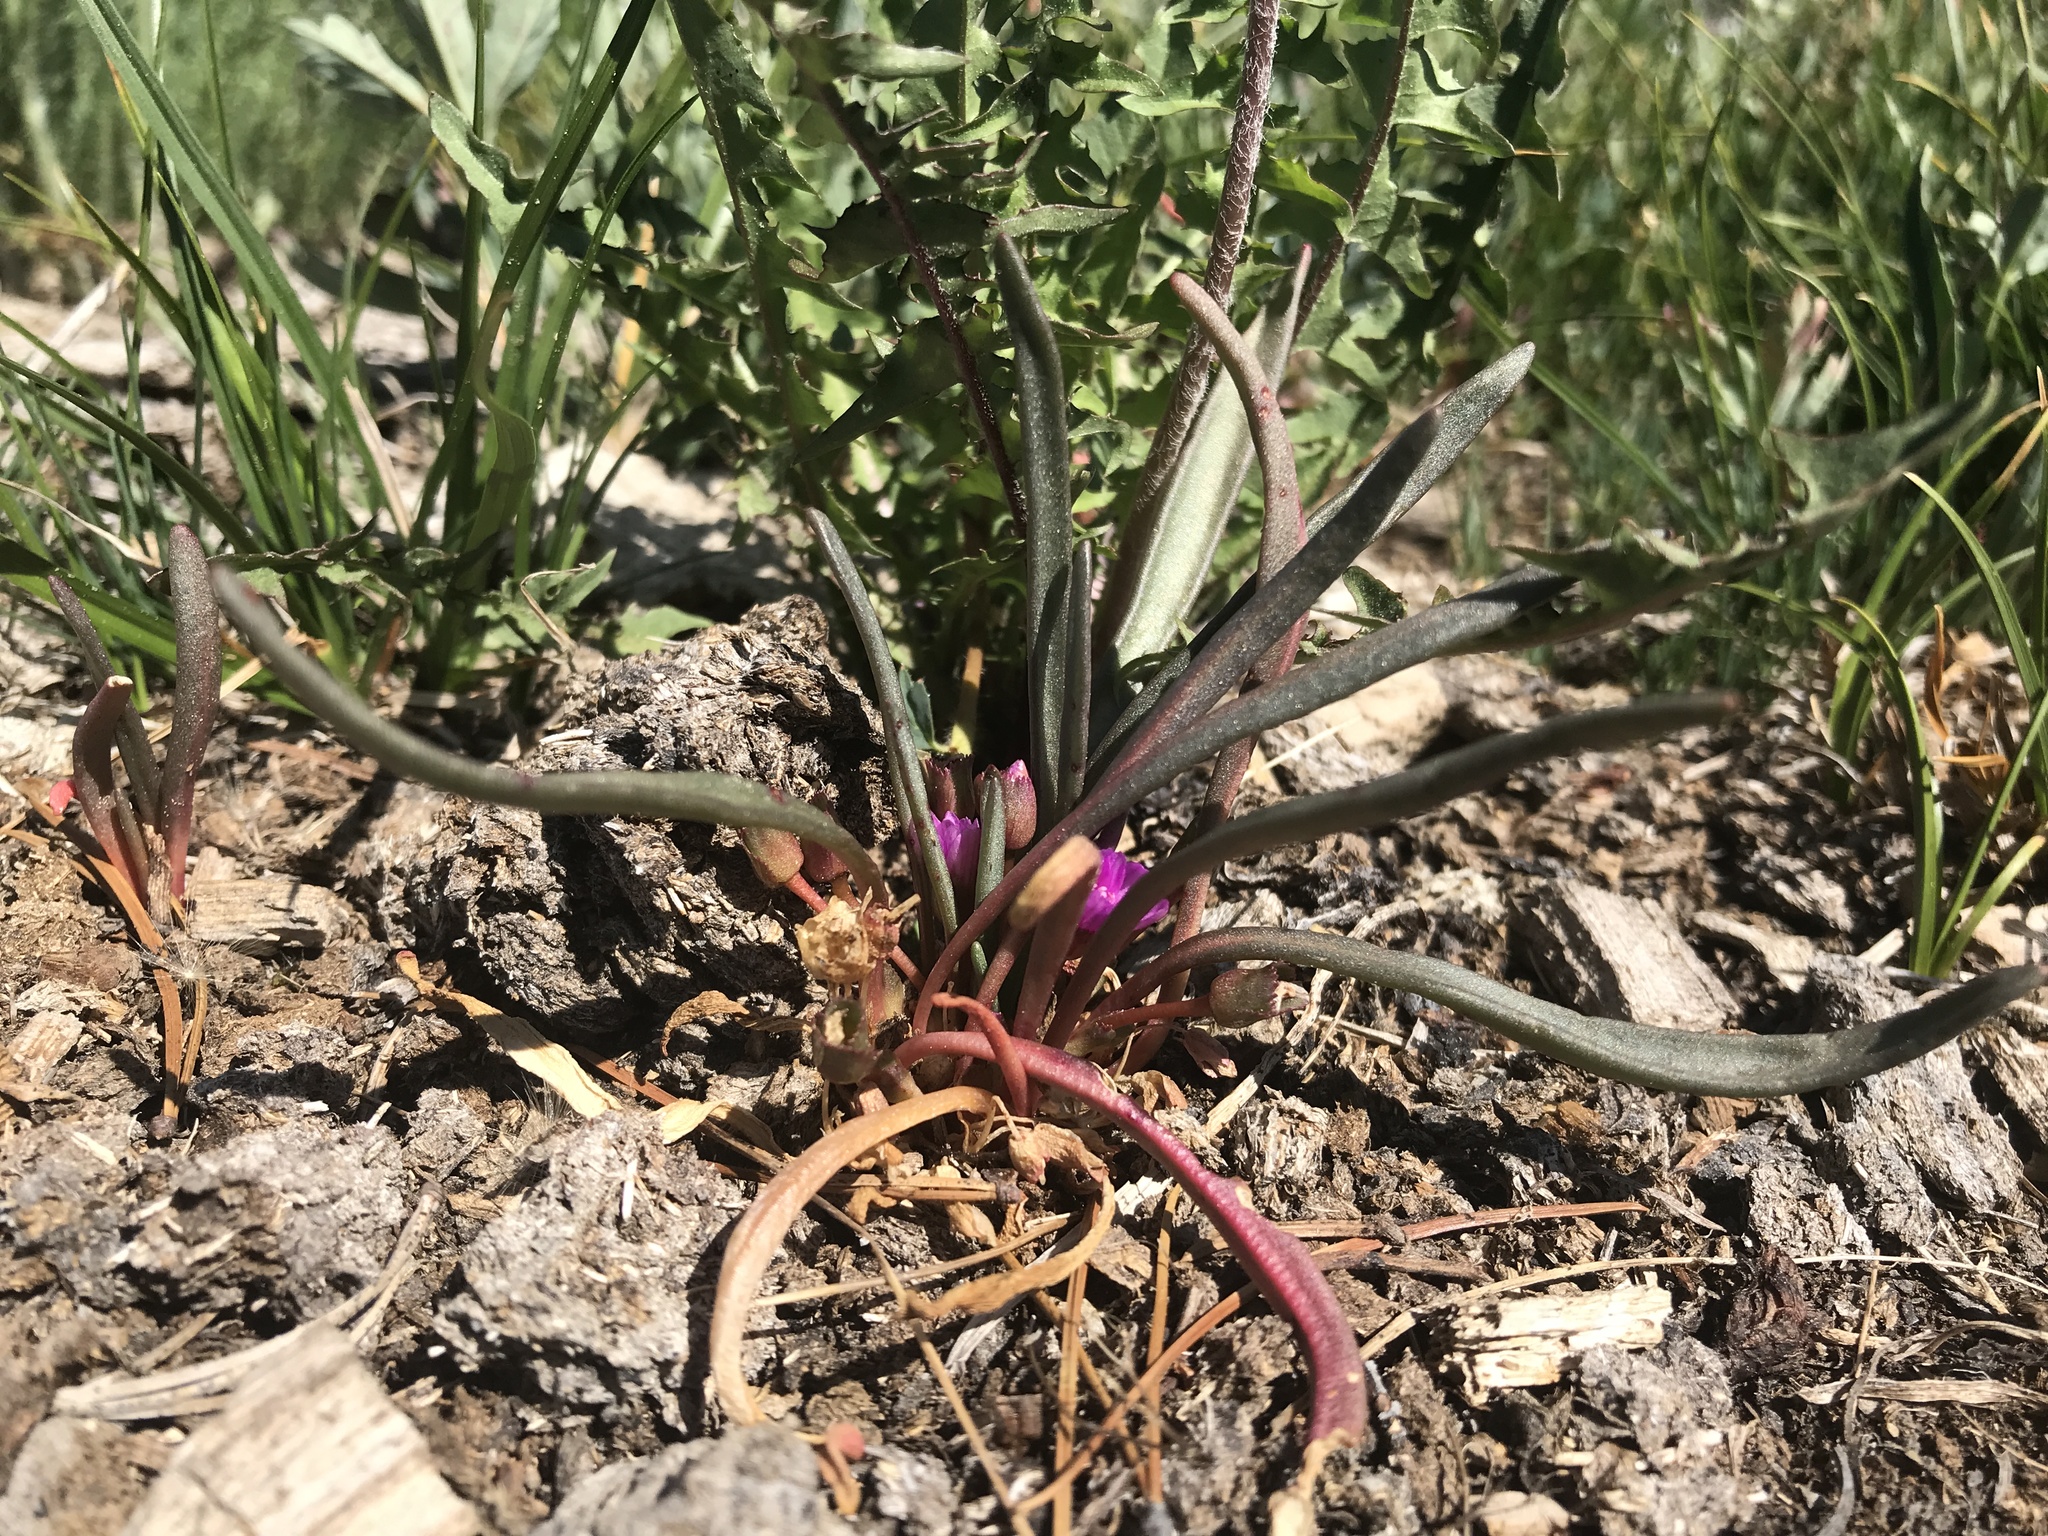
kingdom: Plantae
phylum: Tracheophyta
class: Magnoliopsida
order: Caryophyllales
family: Montiaceae
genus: Lewisia
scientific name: Lewisia pygmaea
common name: Alpine bitterroot
